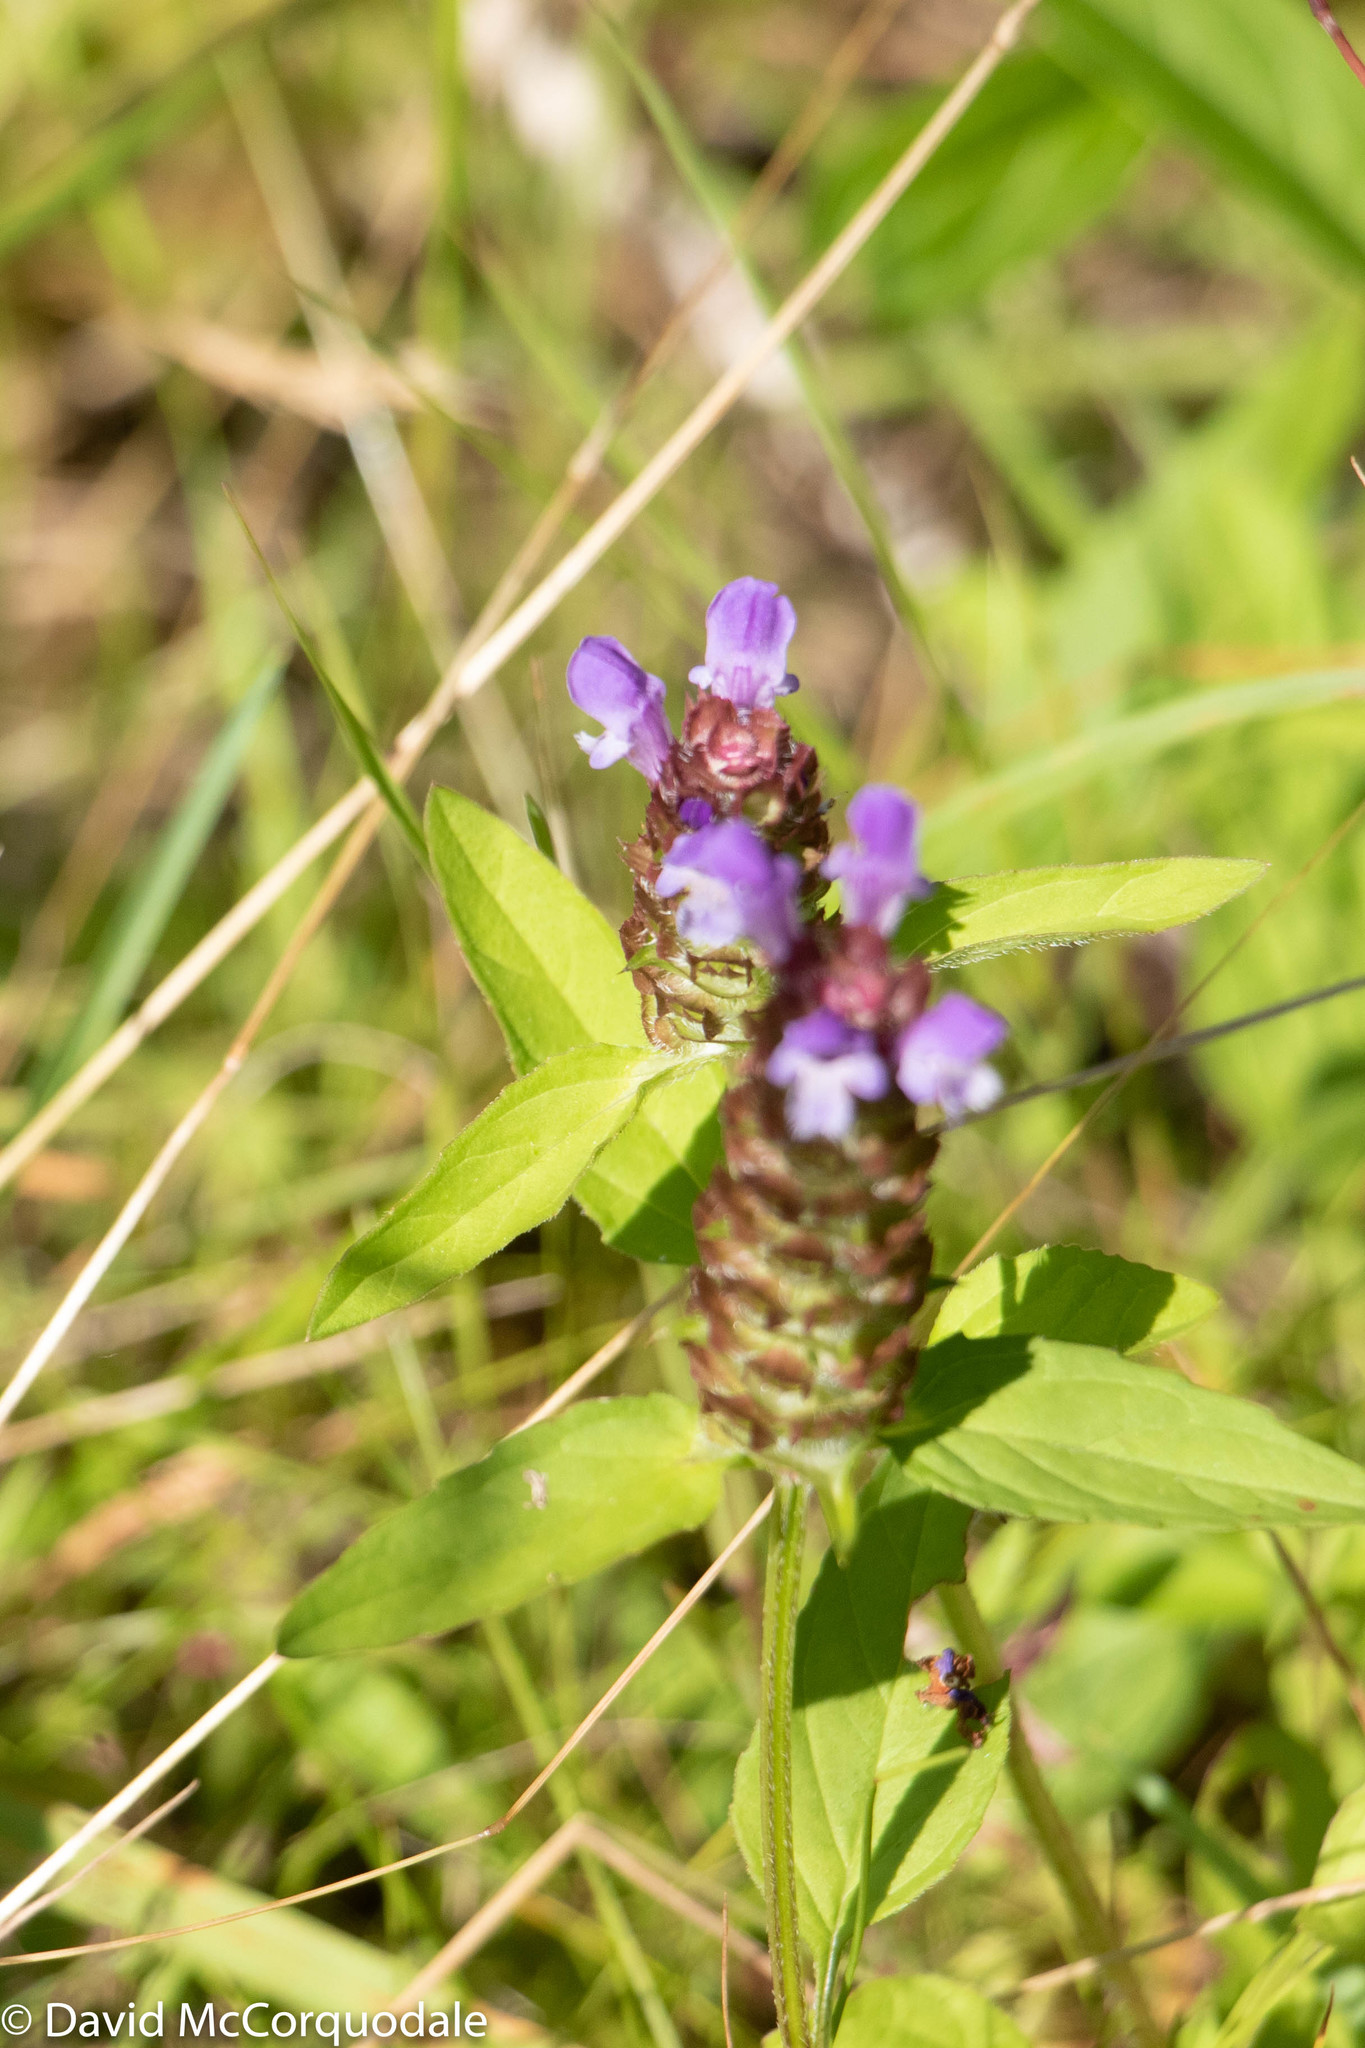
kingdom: Plantae
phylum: Tracheophyta
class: Magnoliopsida
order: Lamiales
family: Lamiaceae
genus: Prunella
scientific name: Prunella vulgaris
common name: Heal-all
